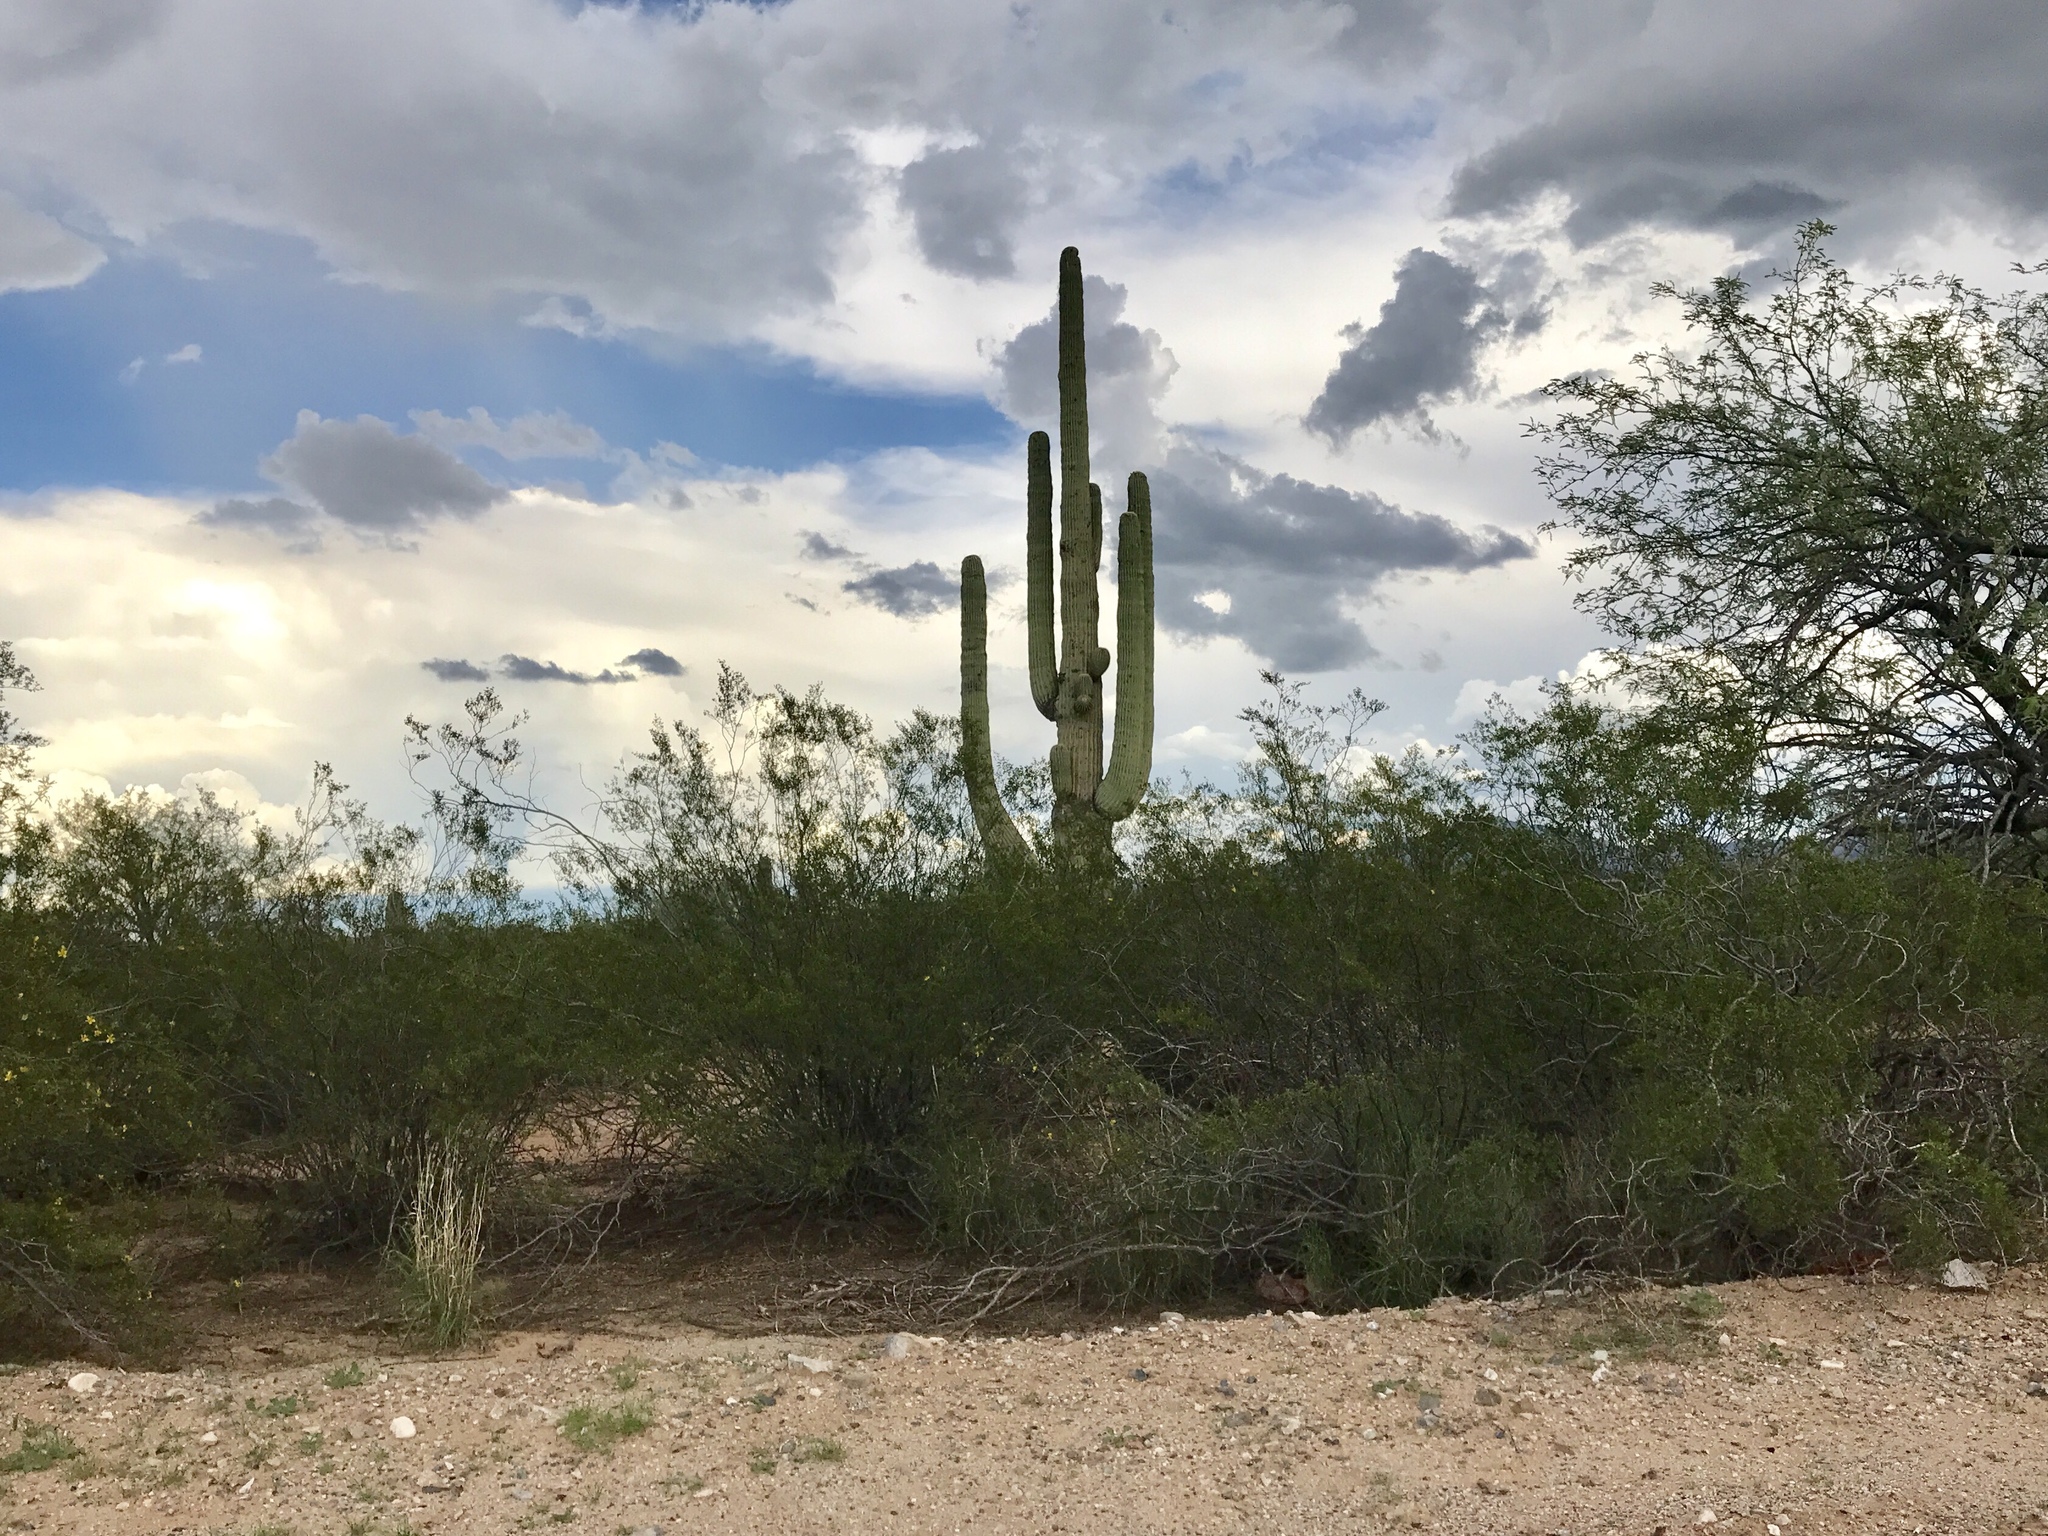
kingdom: Plantae
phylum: Tracheophyta
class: Magnoliopsida
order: Caryophyllales
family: Cactaceae
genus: Carnegiea
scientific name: Carnegiea gigantea
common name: Saguaro
